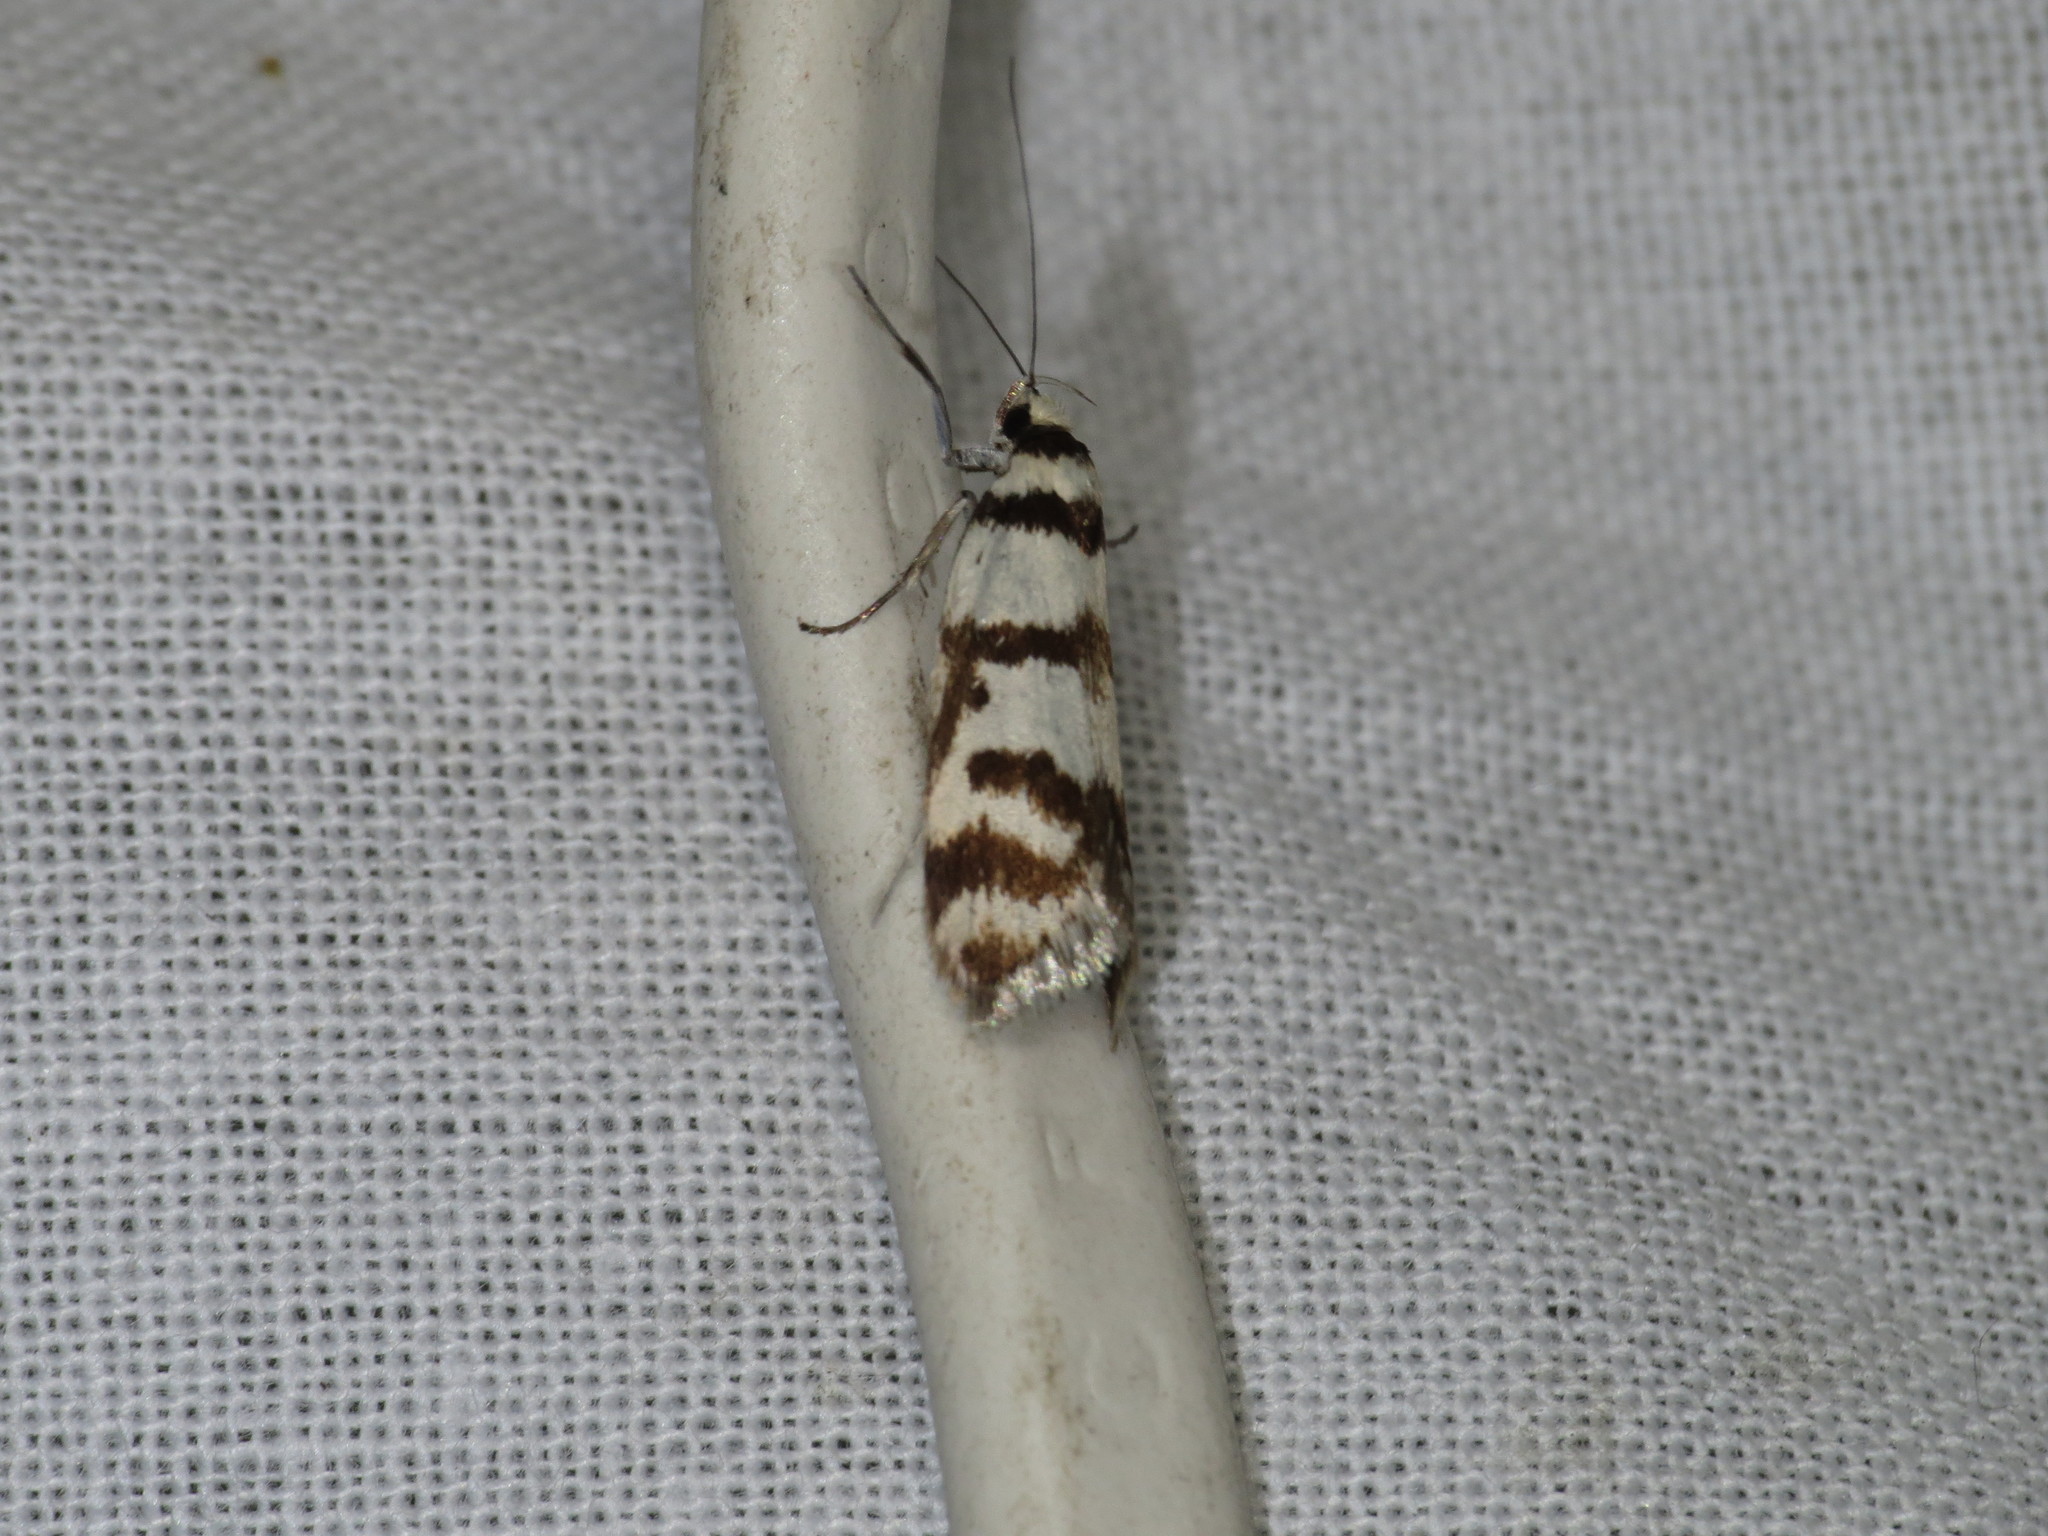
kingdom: Animalia
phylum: Arthropoda
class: Insecta
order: Lepidoptera
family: Oecophoridae
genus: Philobota
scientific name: Philobota impletella
